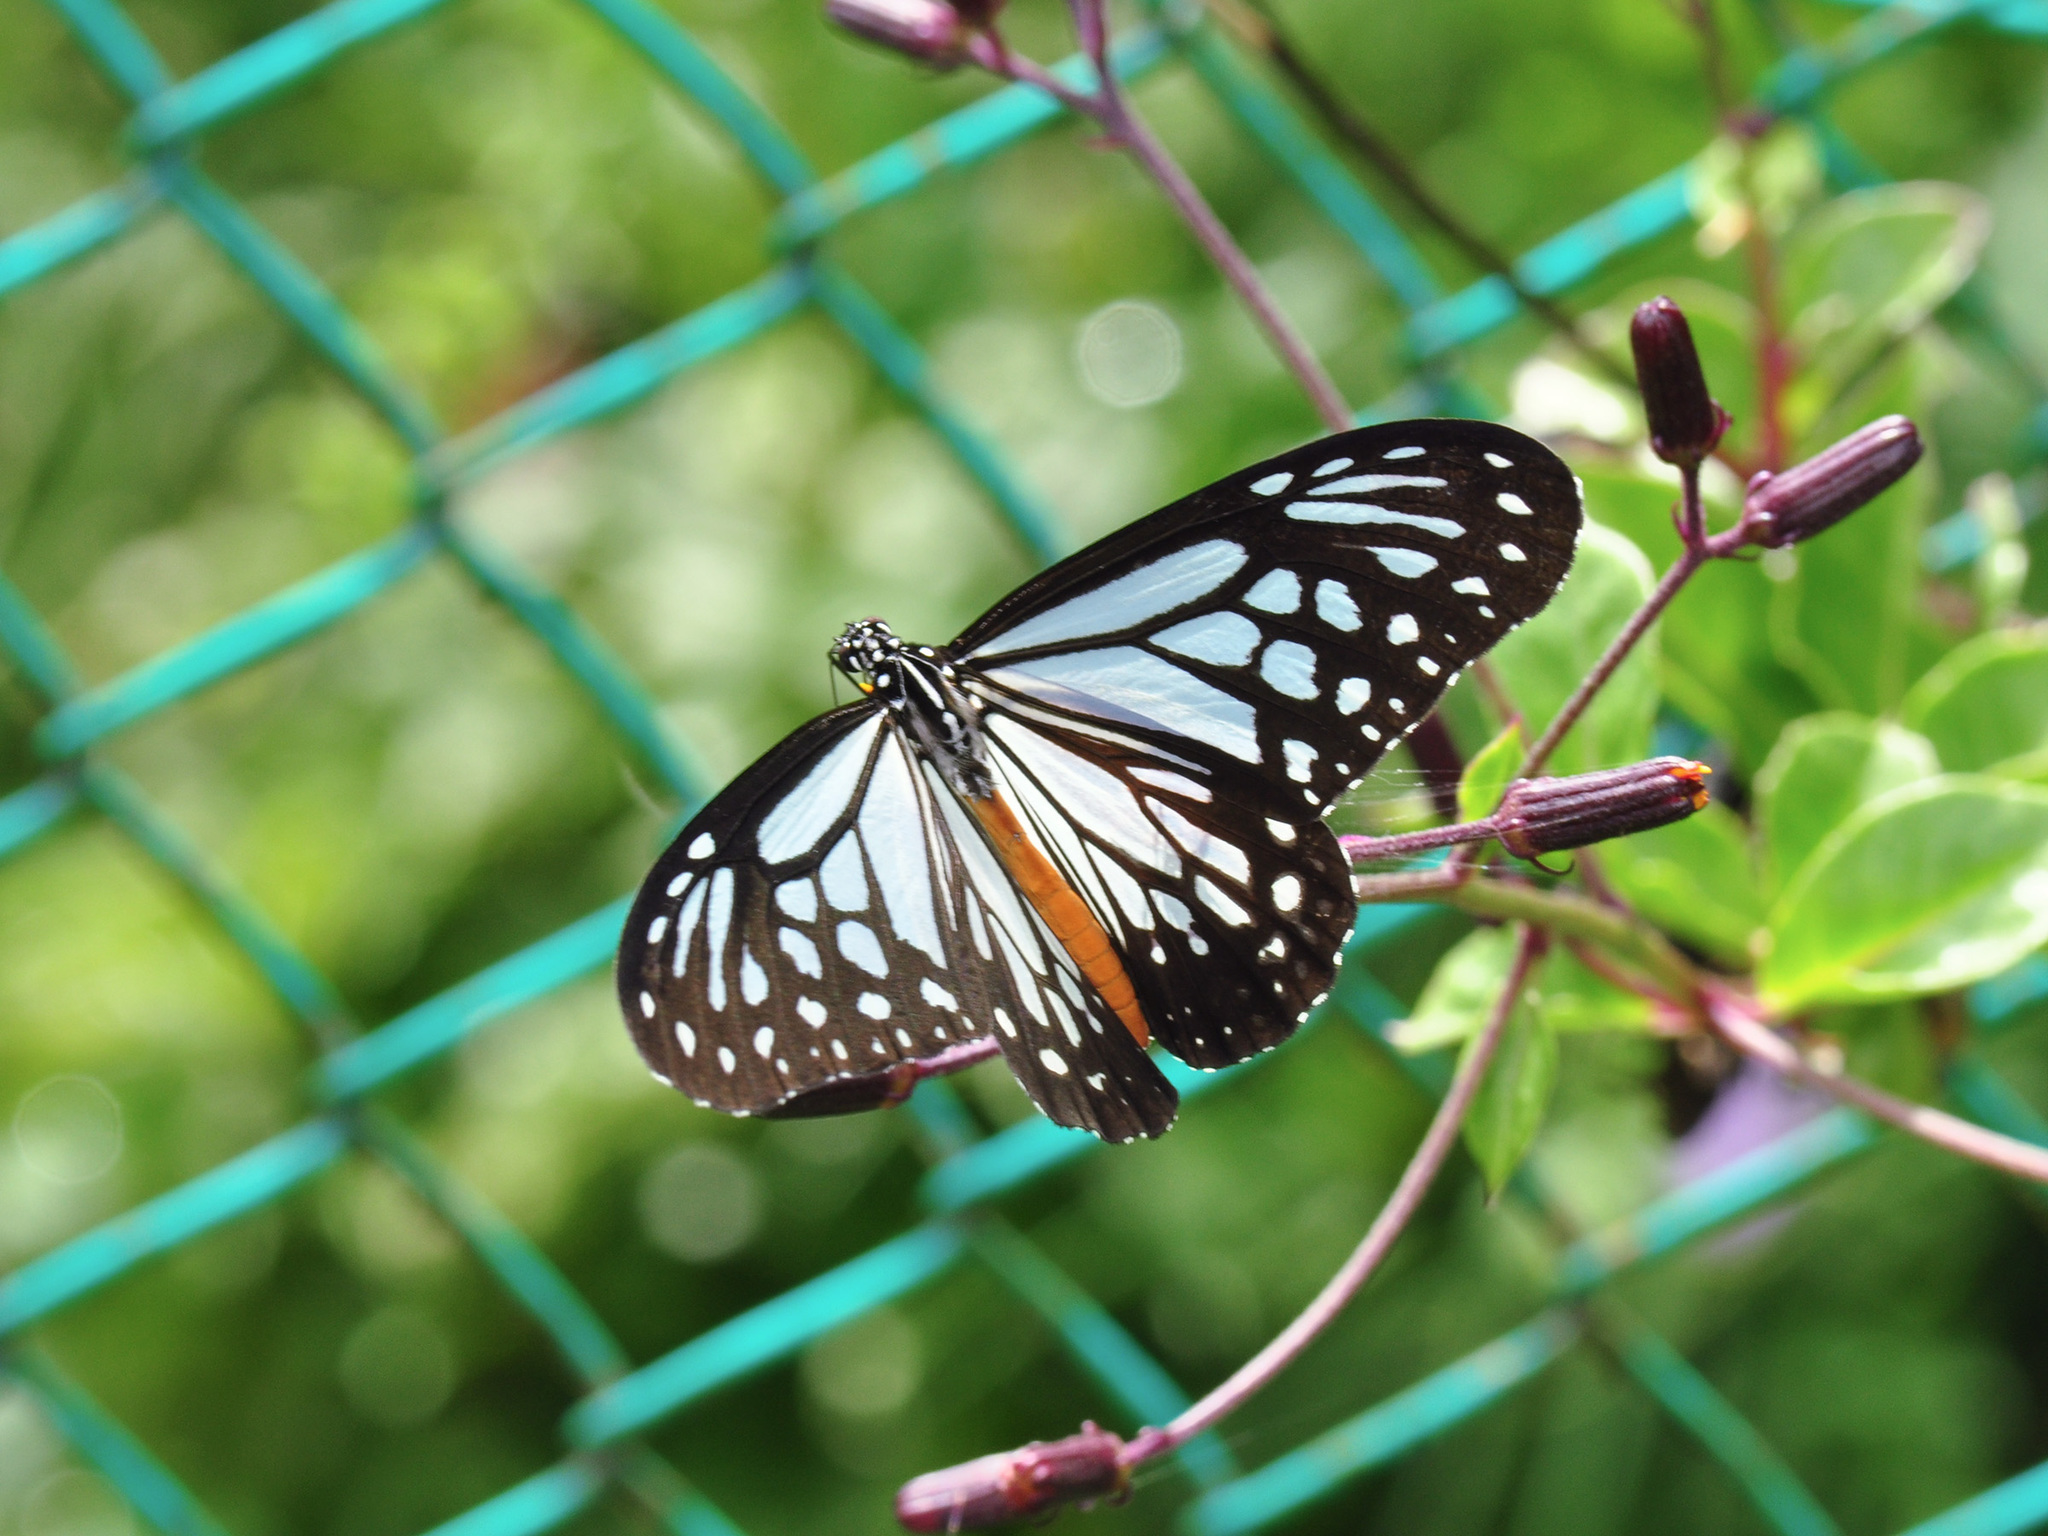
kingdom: Animalia
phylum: Arthropoda
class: Insecta
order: Lepidoptera
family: Nymphalidae
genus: Parantica
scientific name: Parantica melaneus
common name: Chocolate tiger
